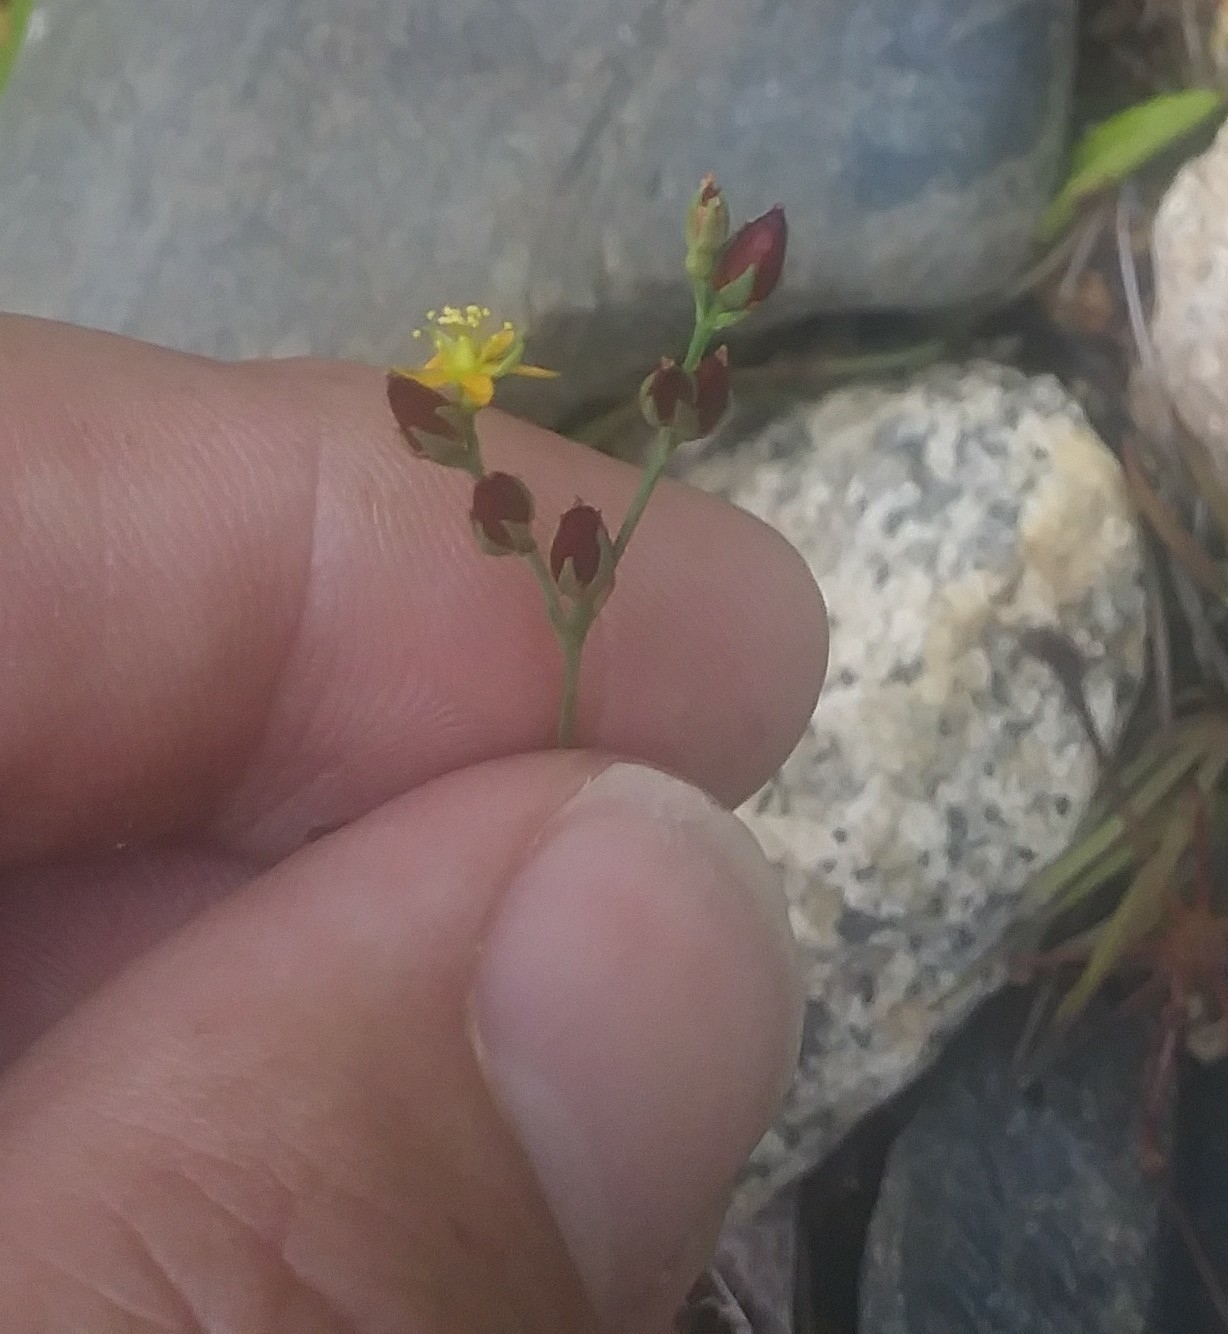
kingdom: Plantae
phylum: Tracheophyta
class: Magnoliopsida
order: Malpighiales
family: Hypericaceae
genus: Hypericum
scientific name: Hypericum canadense
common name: Irish st. john's-wort
